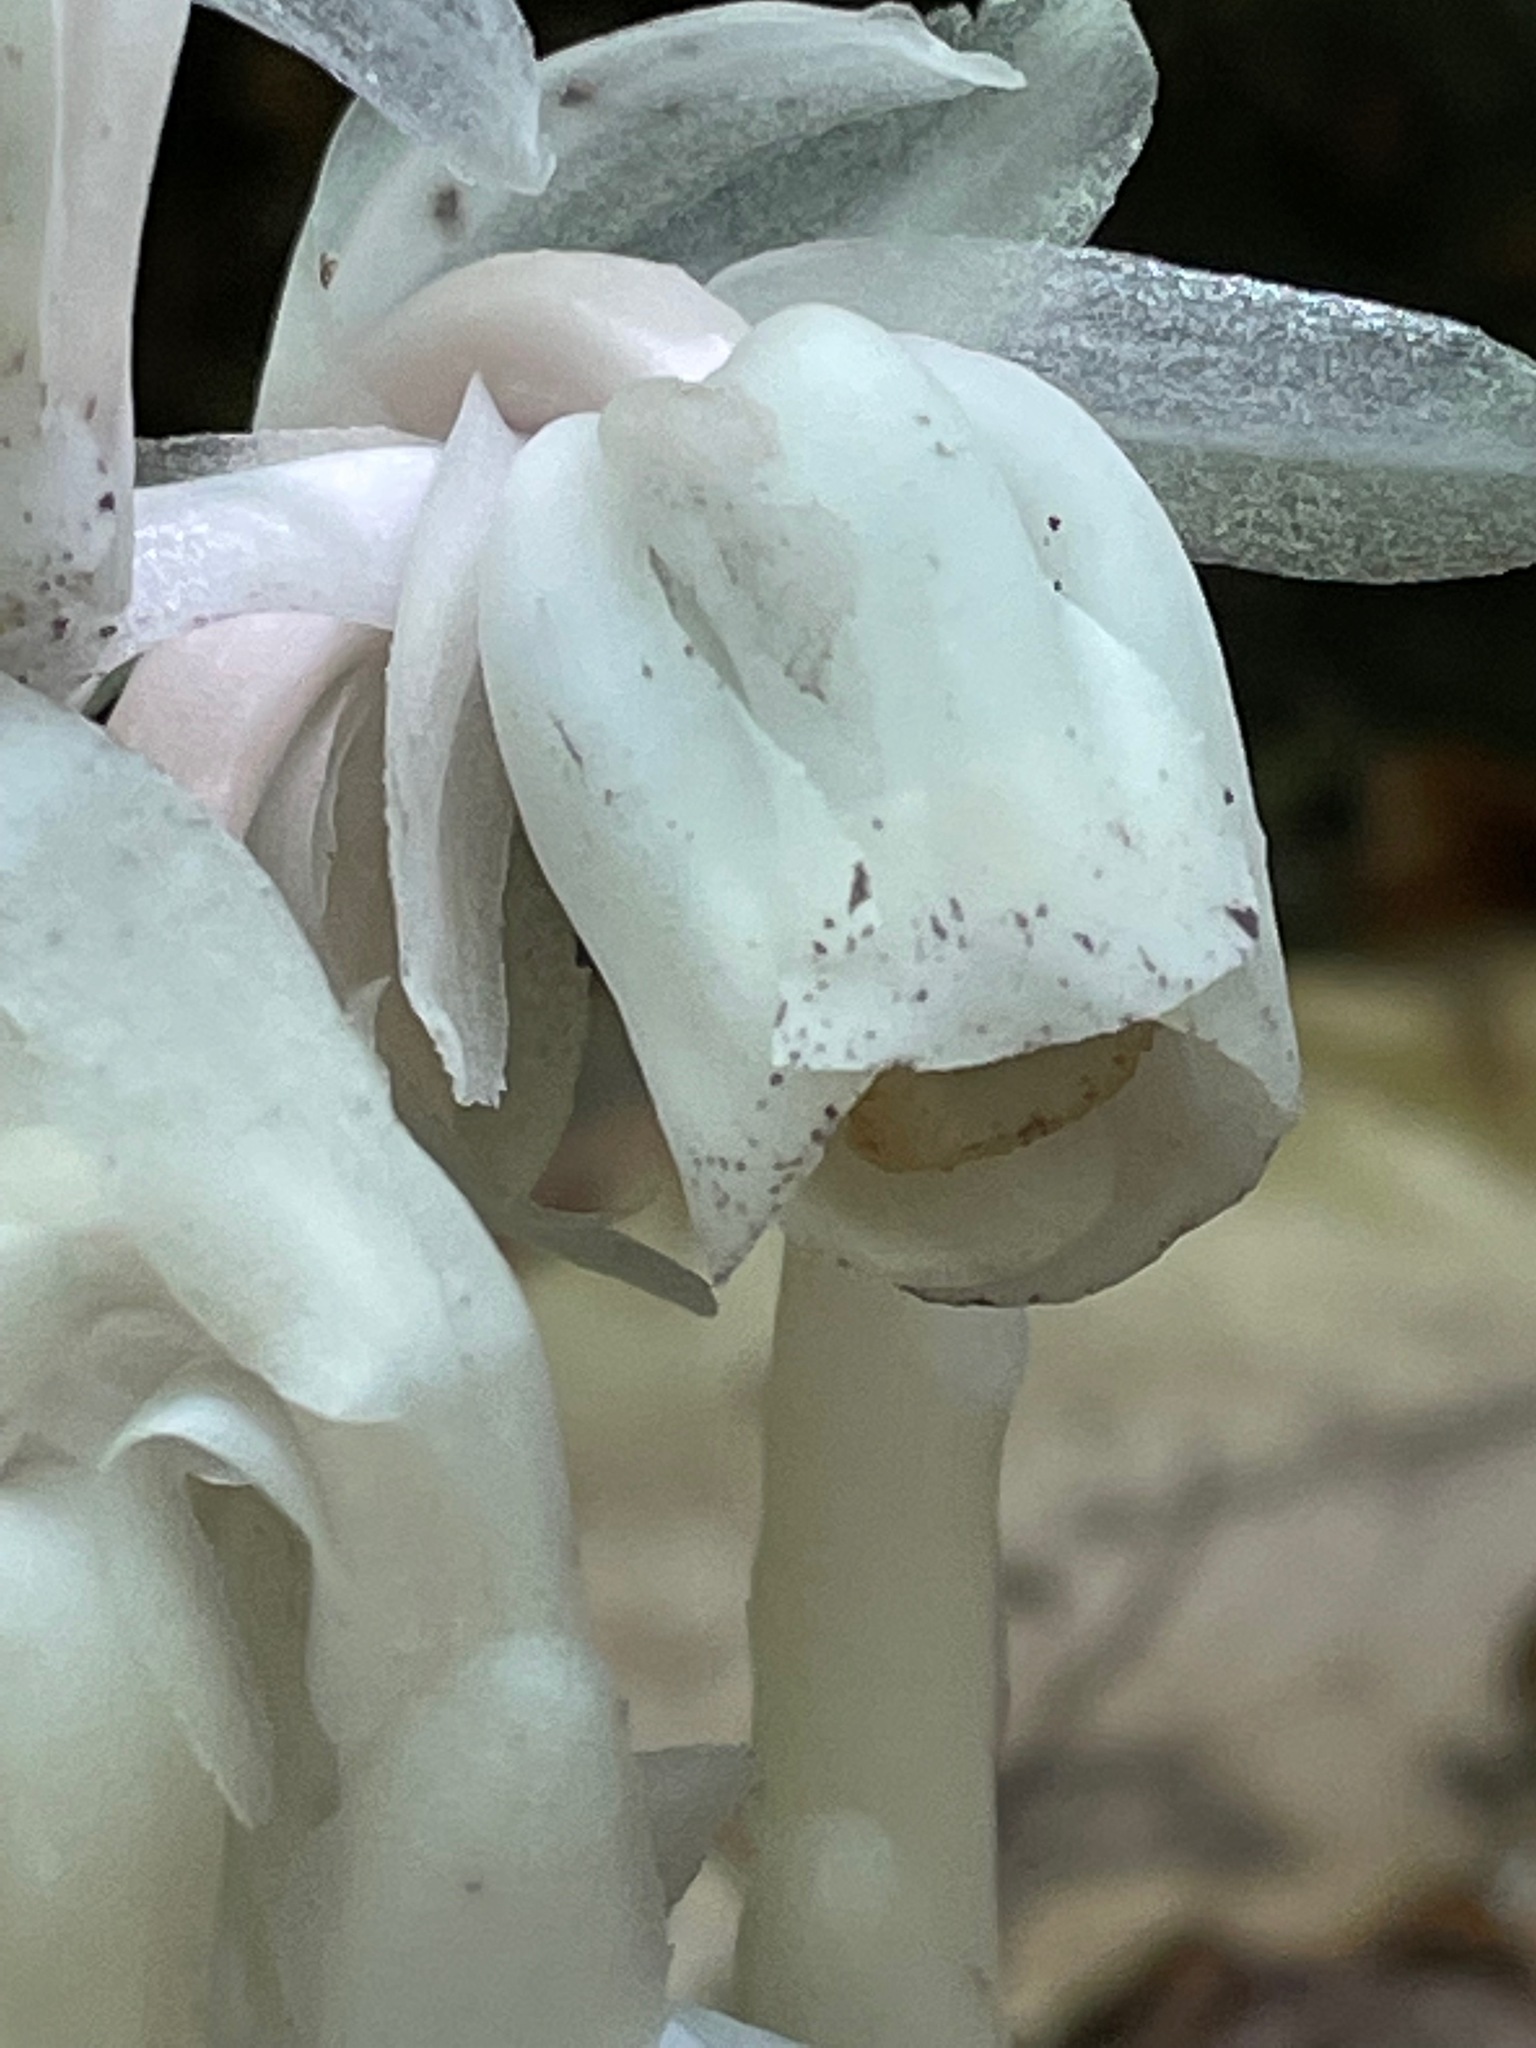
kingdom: Plantae
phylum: Tracheophyta
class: Magnoliopsida
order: Ericales
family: Ericaceae
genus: Monotropa
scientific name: Monotropa uniflora
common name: Convulsion root
